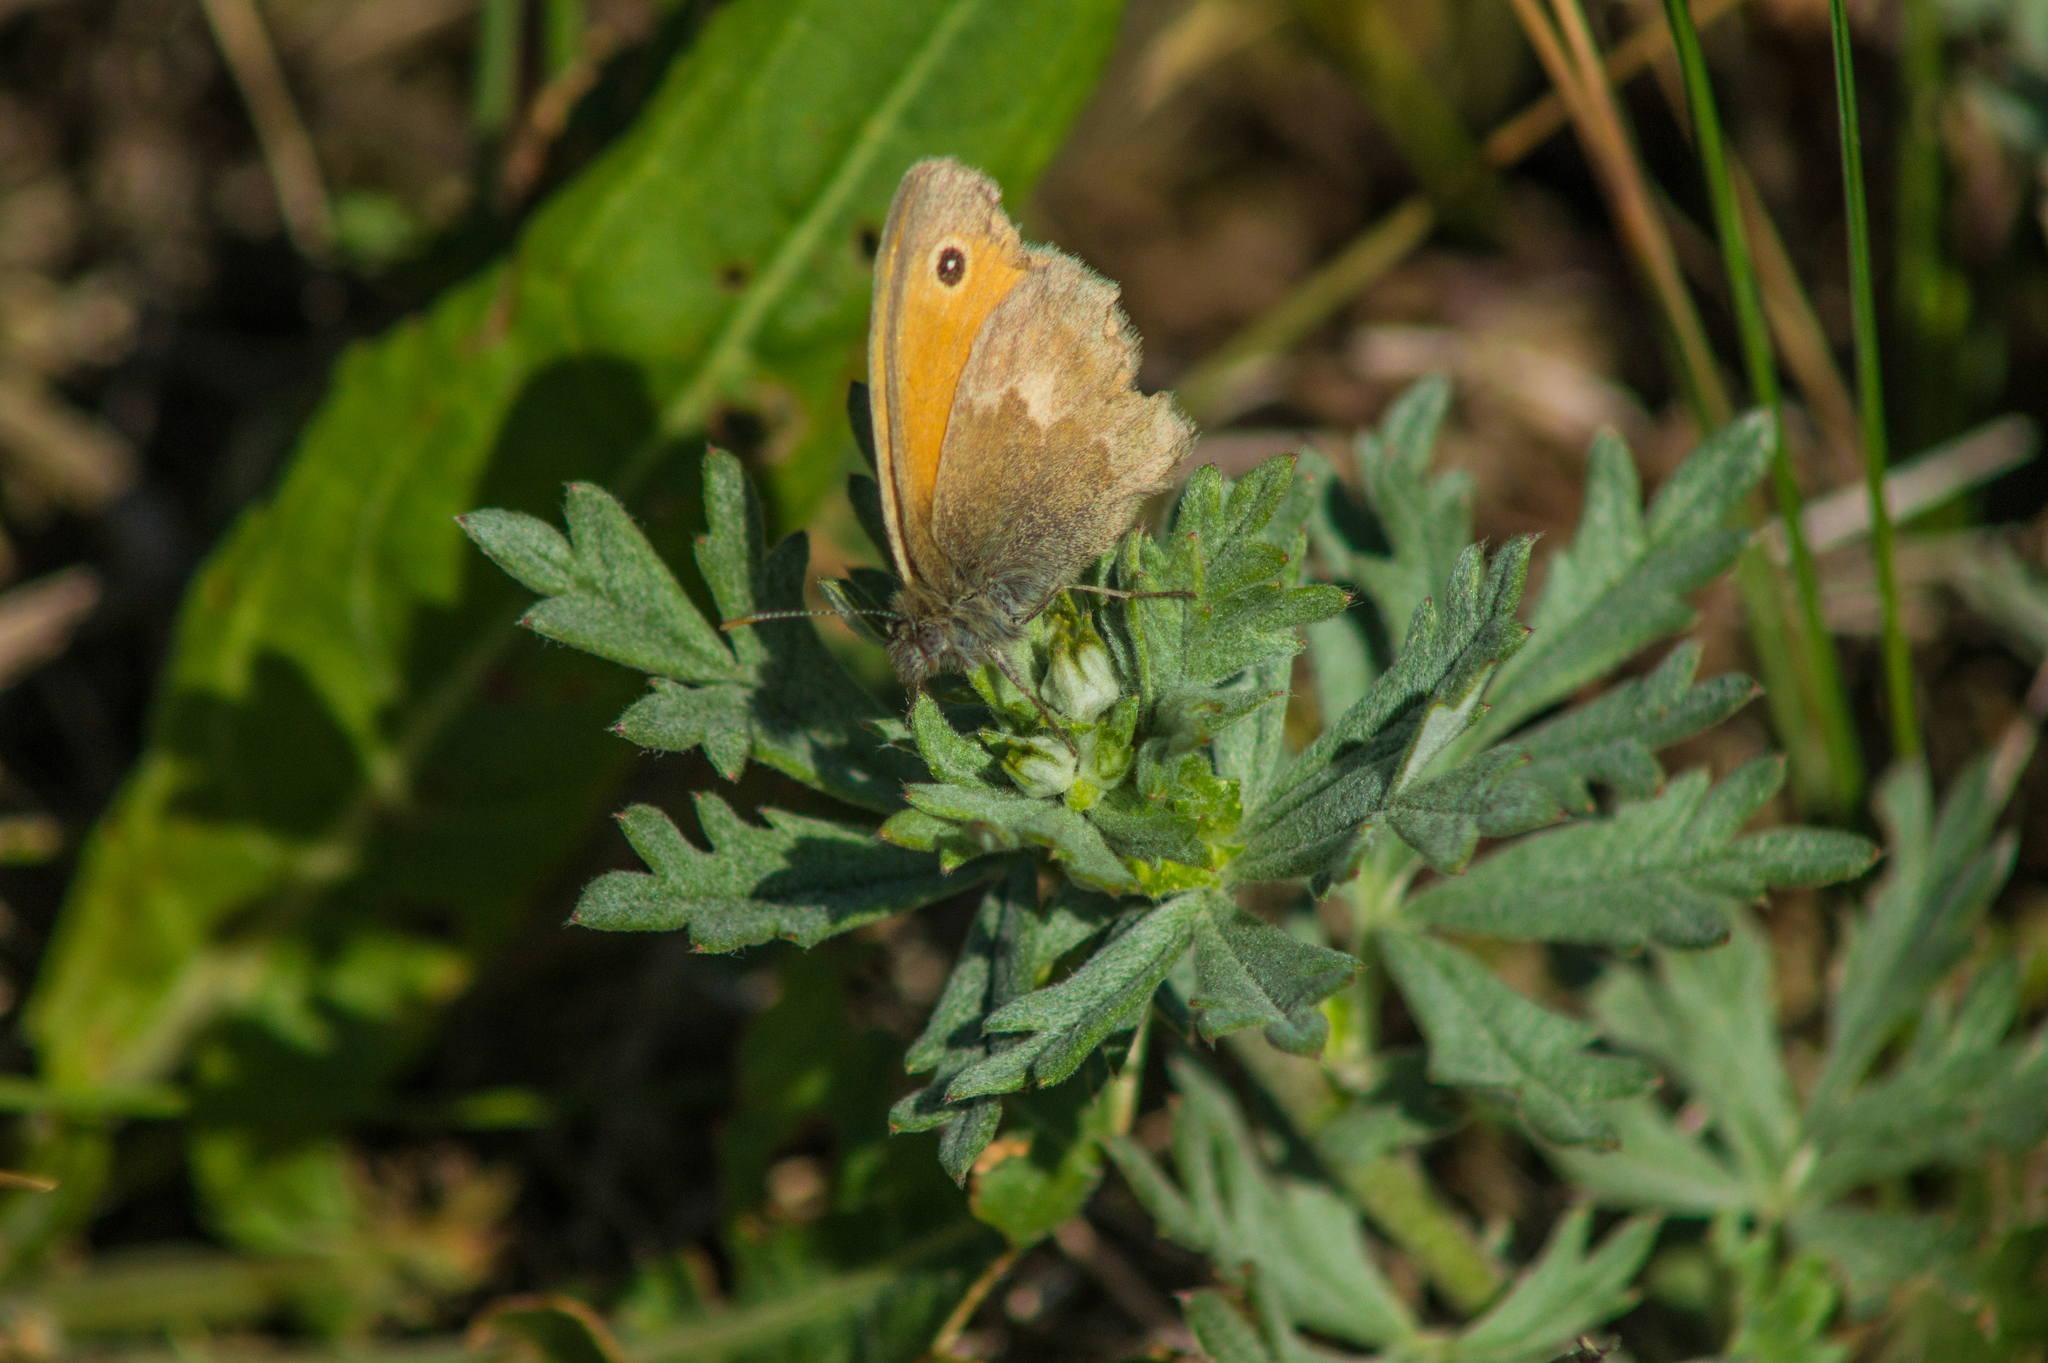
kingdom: Animalia
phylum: Arthropoda
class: Insecta
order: Lepidoptera
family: Nymphalidae
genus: Coenonympha
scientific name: Coenonympha pamphilus
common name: Small heath
